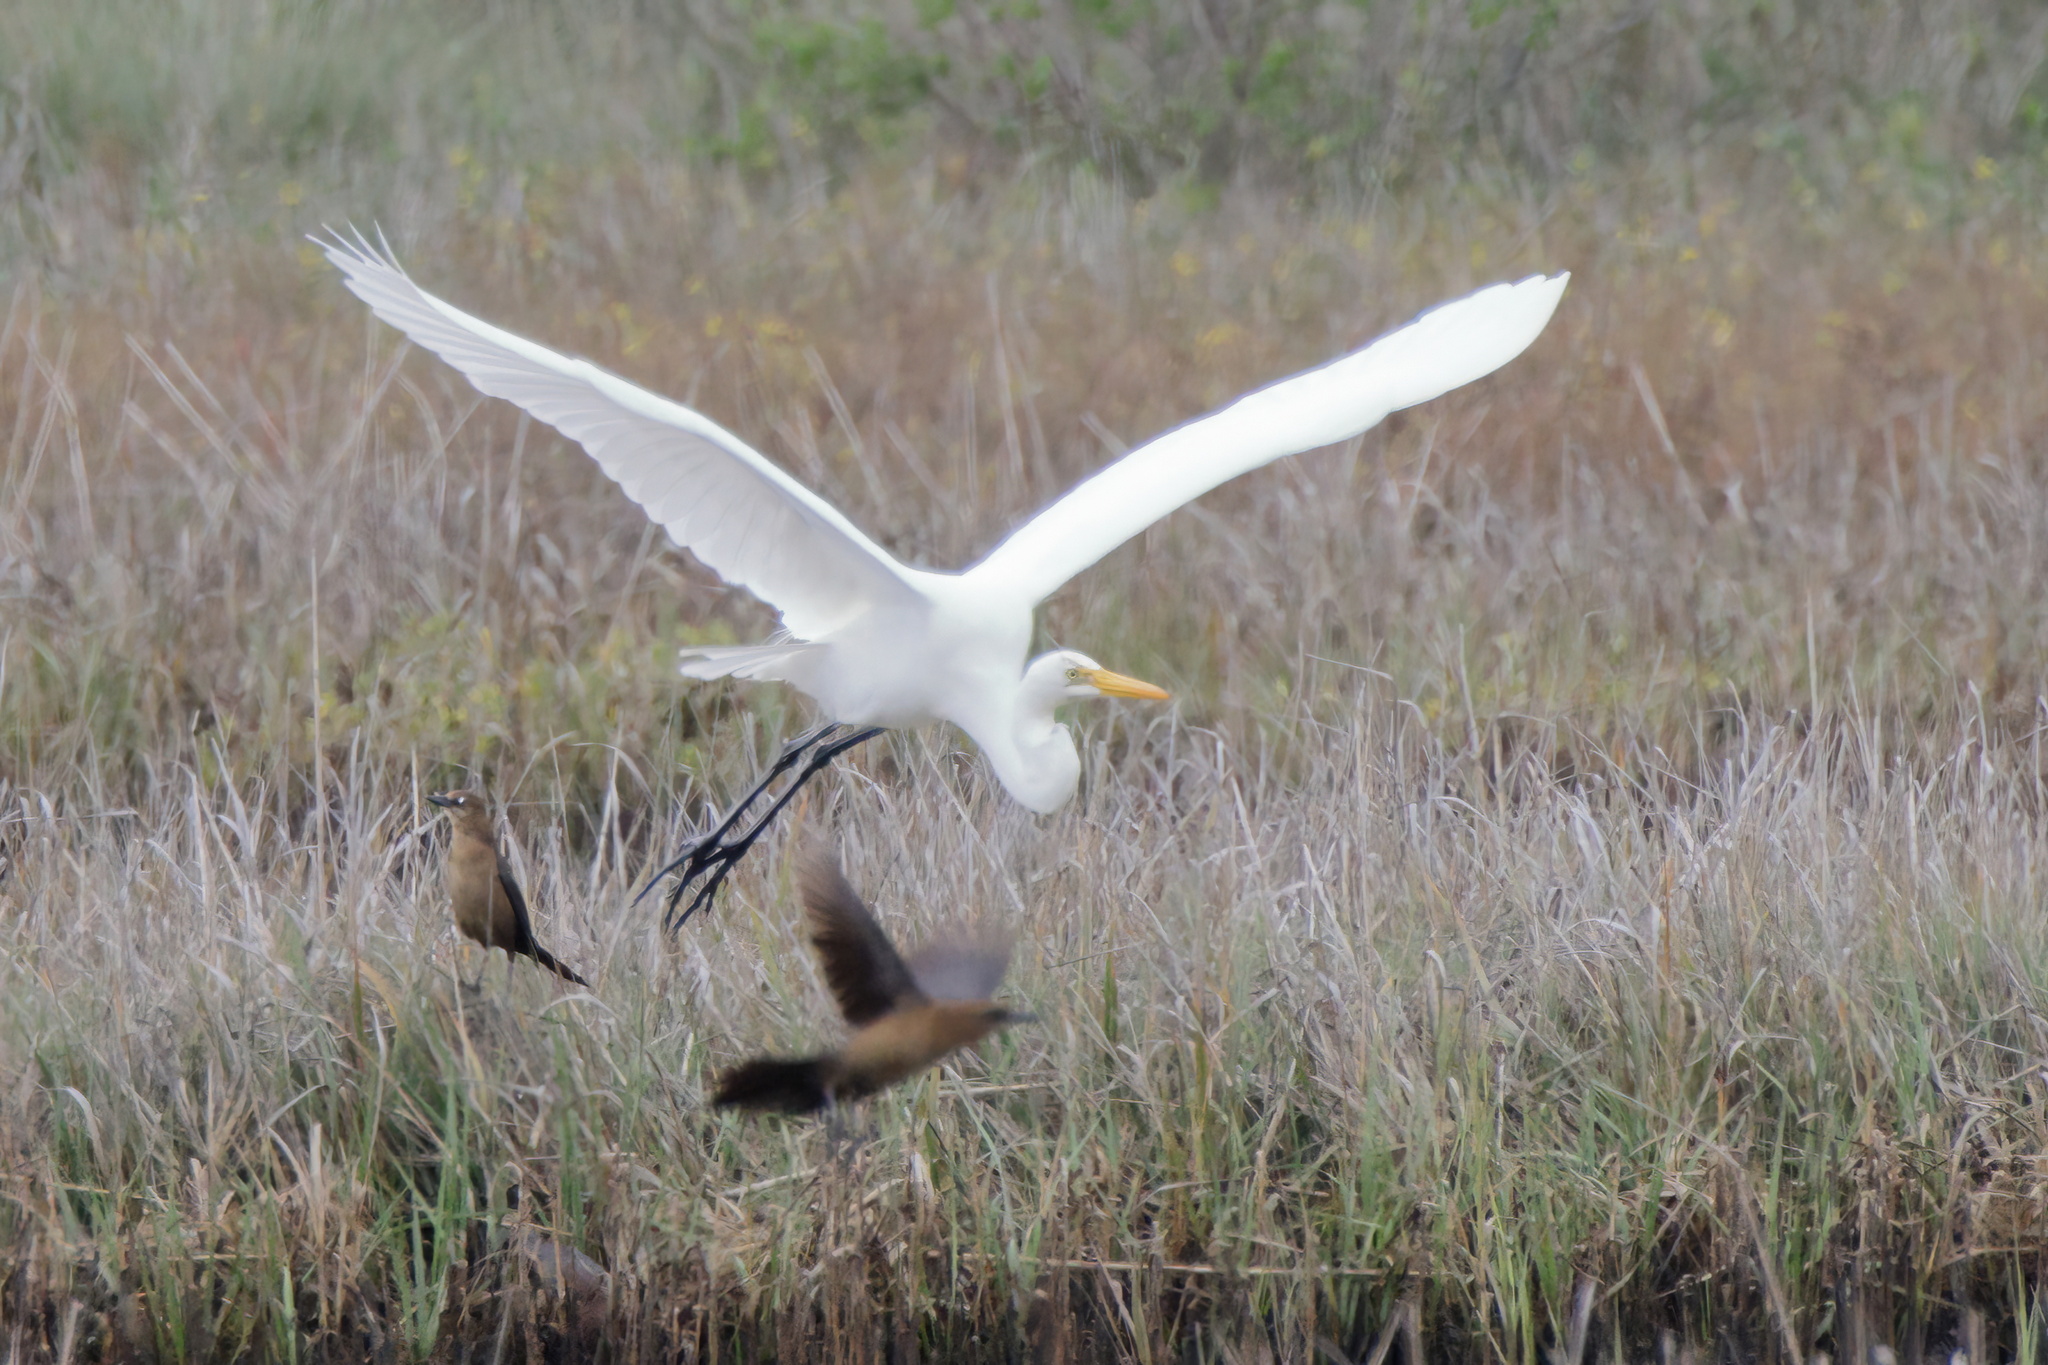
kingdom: Animalia
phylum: Chordata
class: Aves
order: Pelecaniformes
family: Ardeidae
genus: Ardea
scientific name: Ardea alba
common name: Great egret
